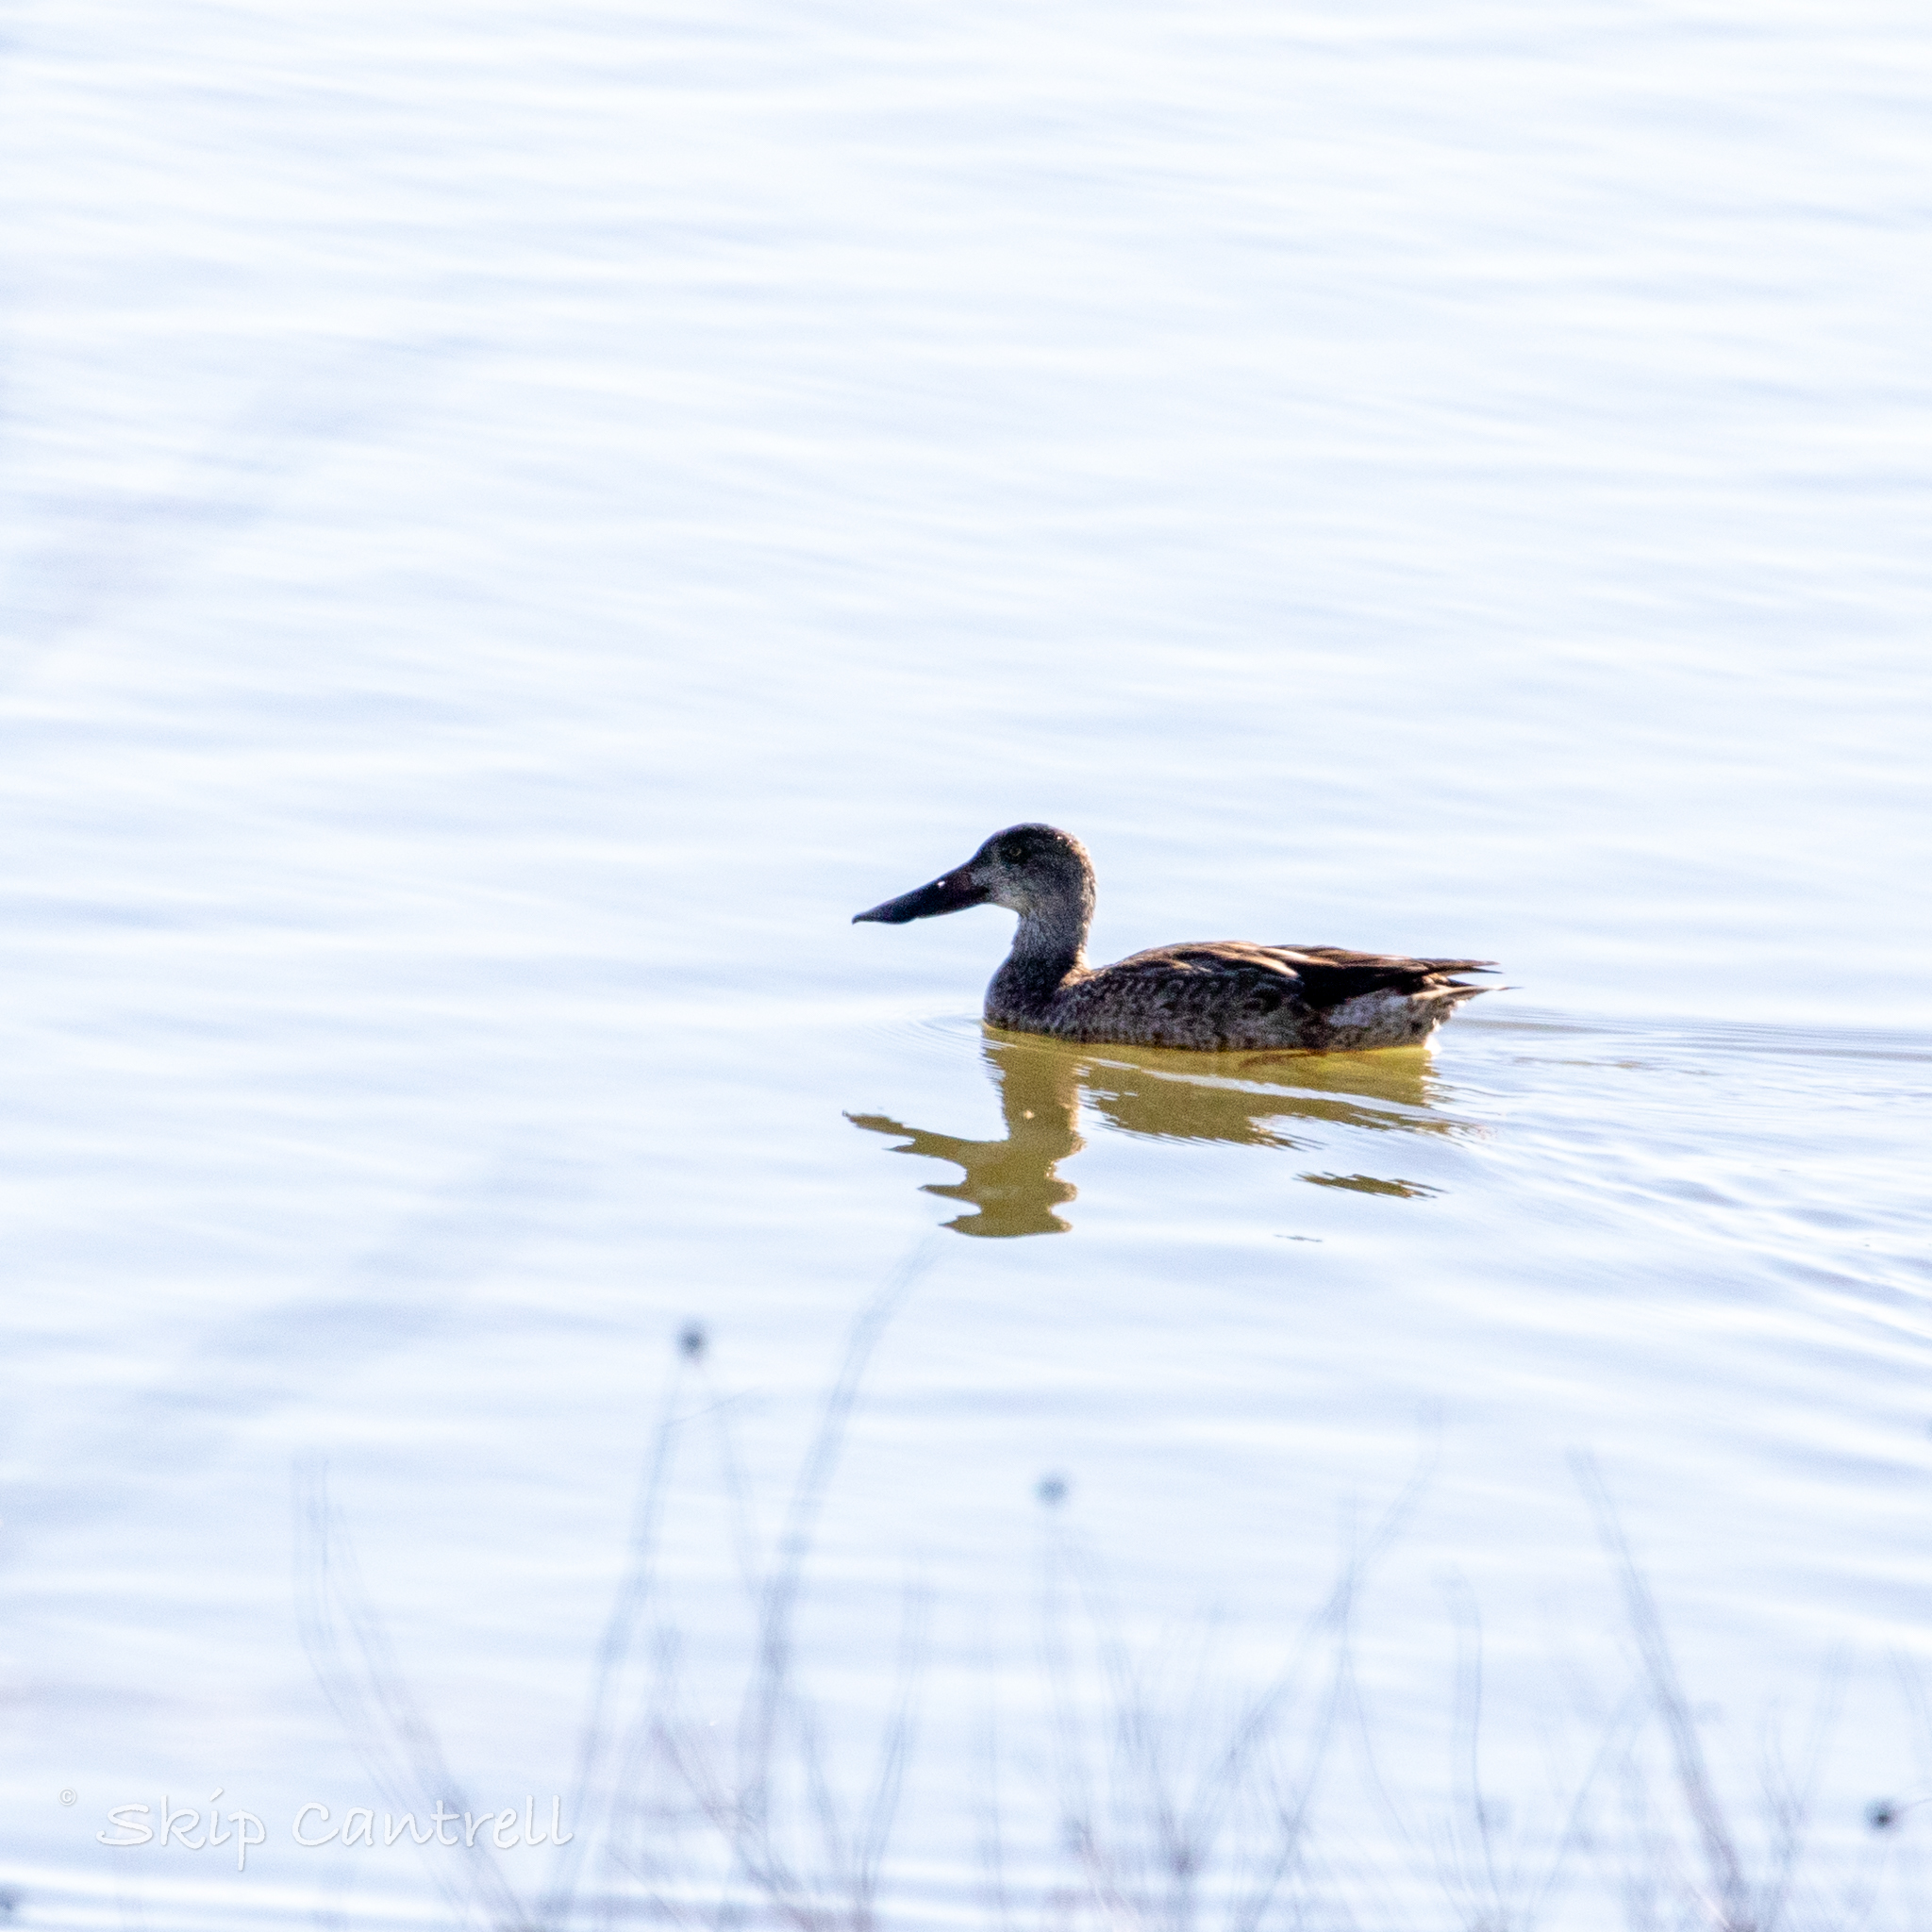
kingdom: Animalia
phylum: Chordata
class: Aves
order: Anseriformes
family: Anatidae
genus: Spatula
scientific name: Spatula clypeata
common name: Northern shoveler
